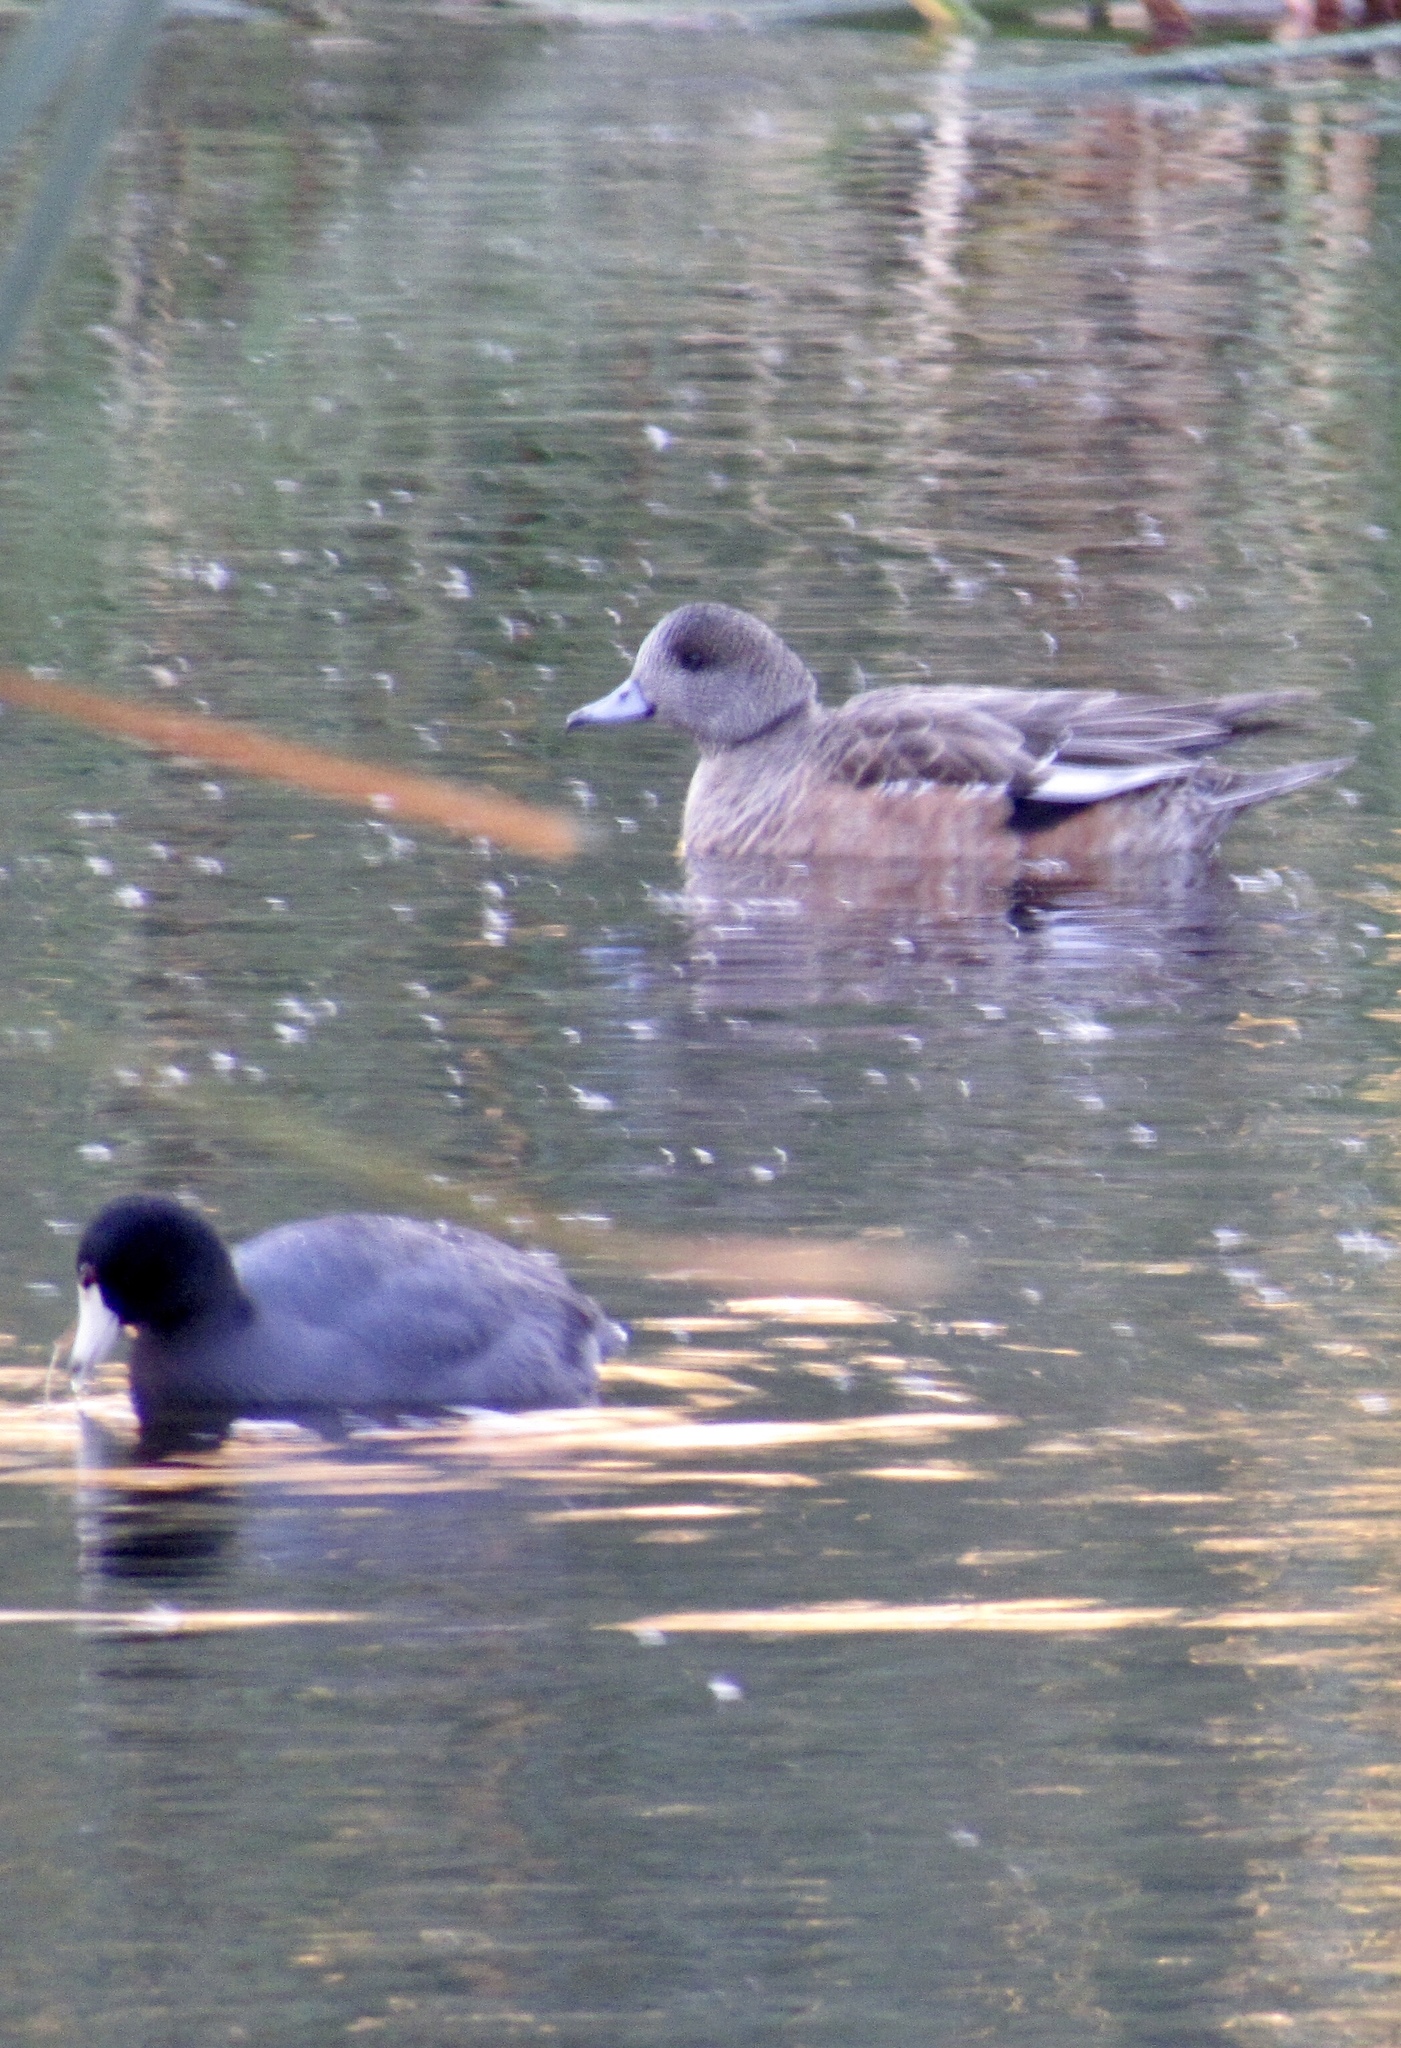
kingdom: Animalia
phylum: Chordata
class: Aves
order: Gruiformes
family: Rallidae
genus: Fulica
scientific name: Fulica americana
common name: American coot
